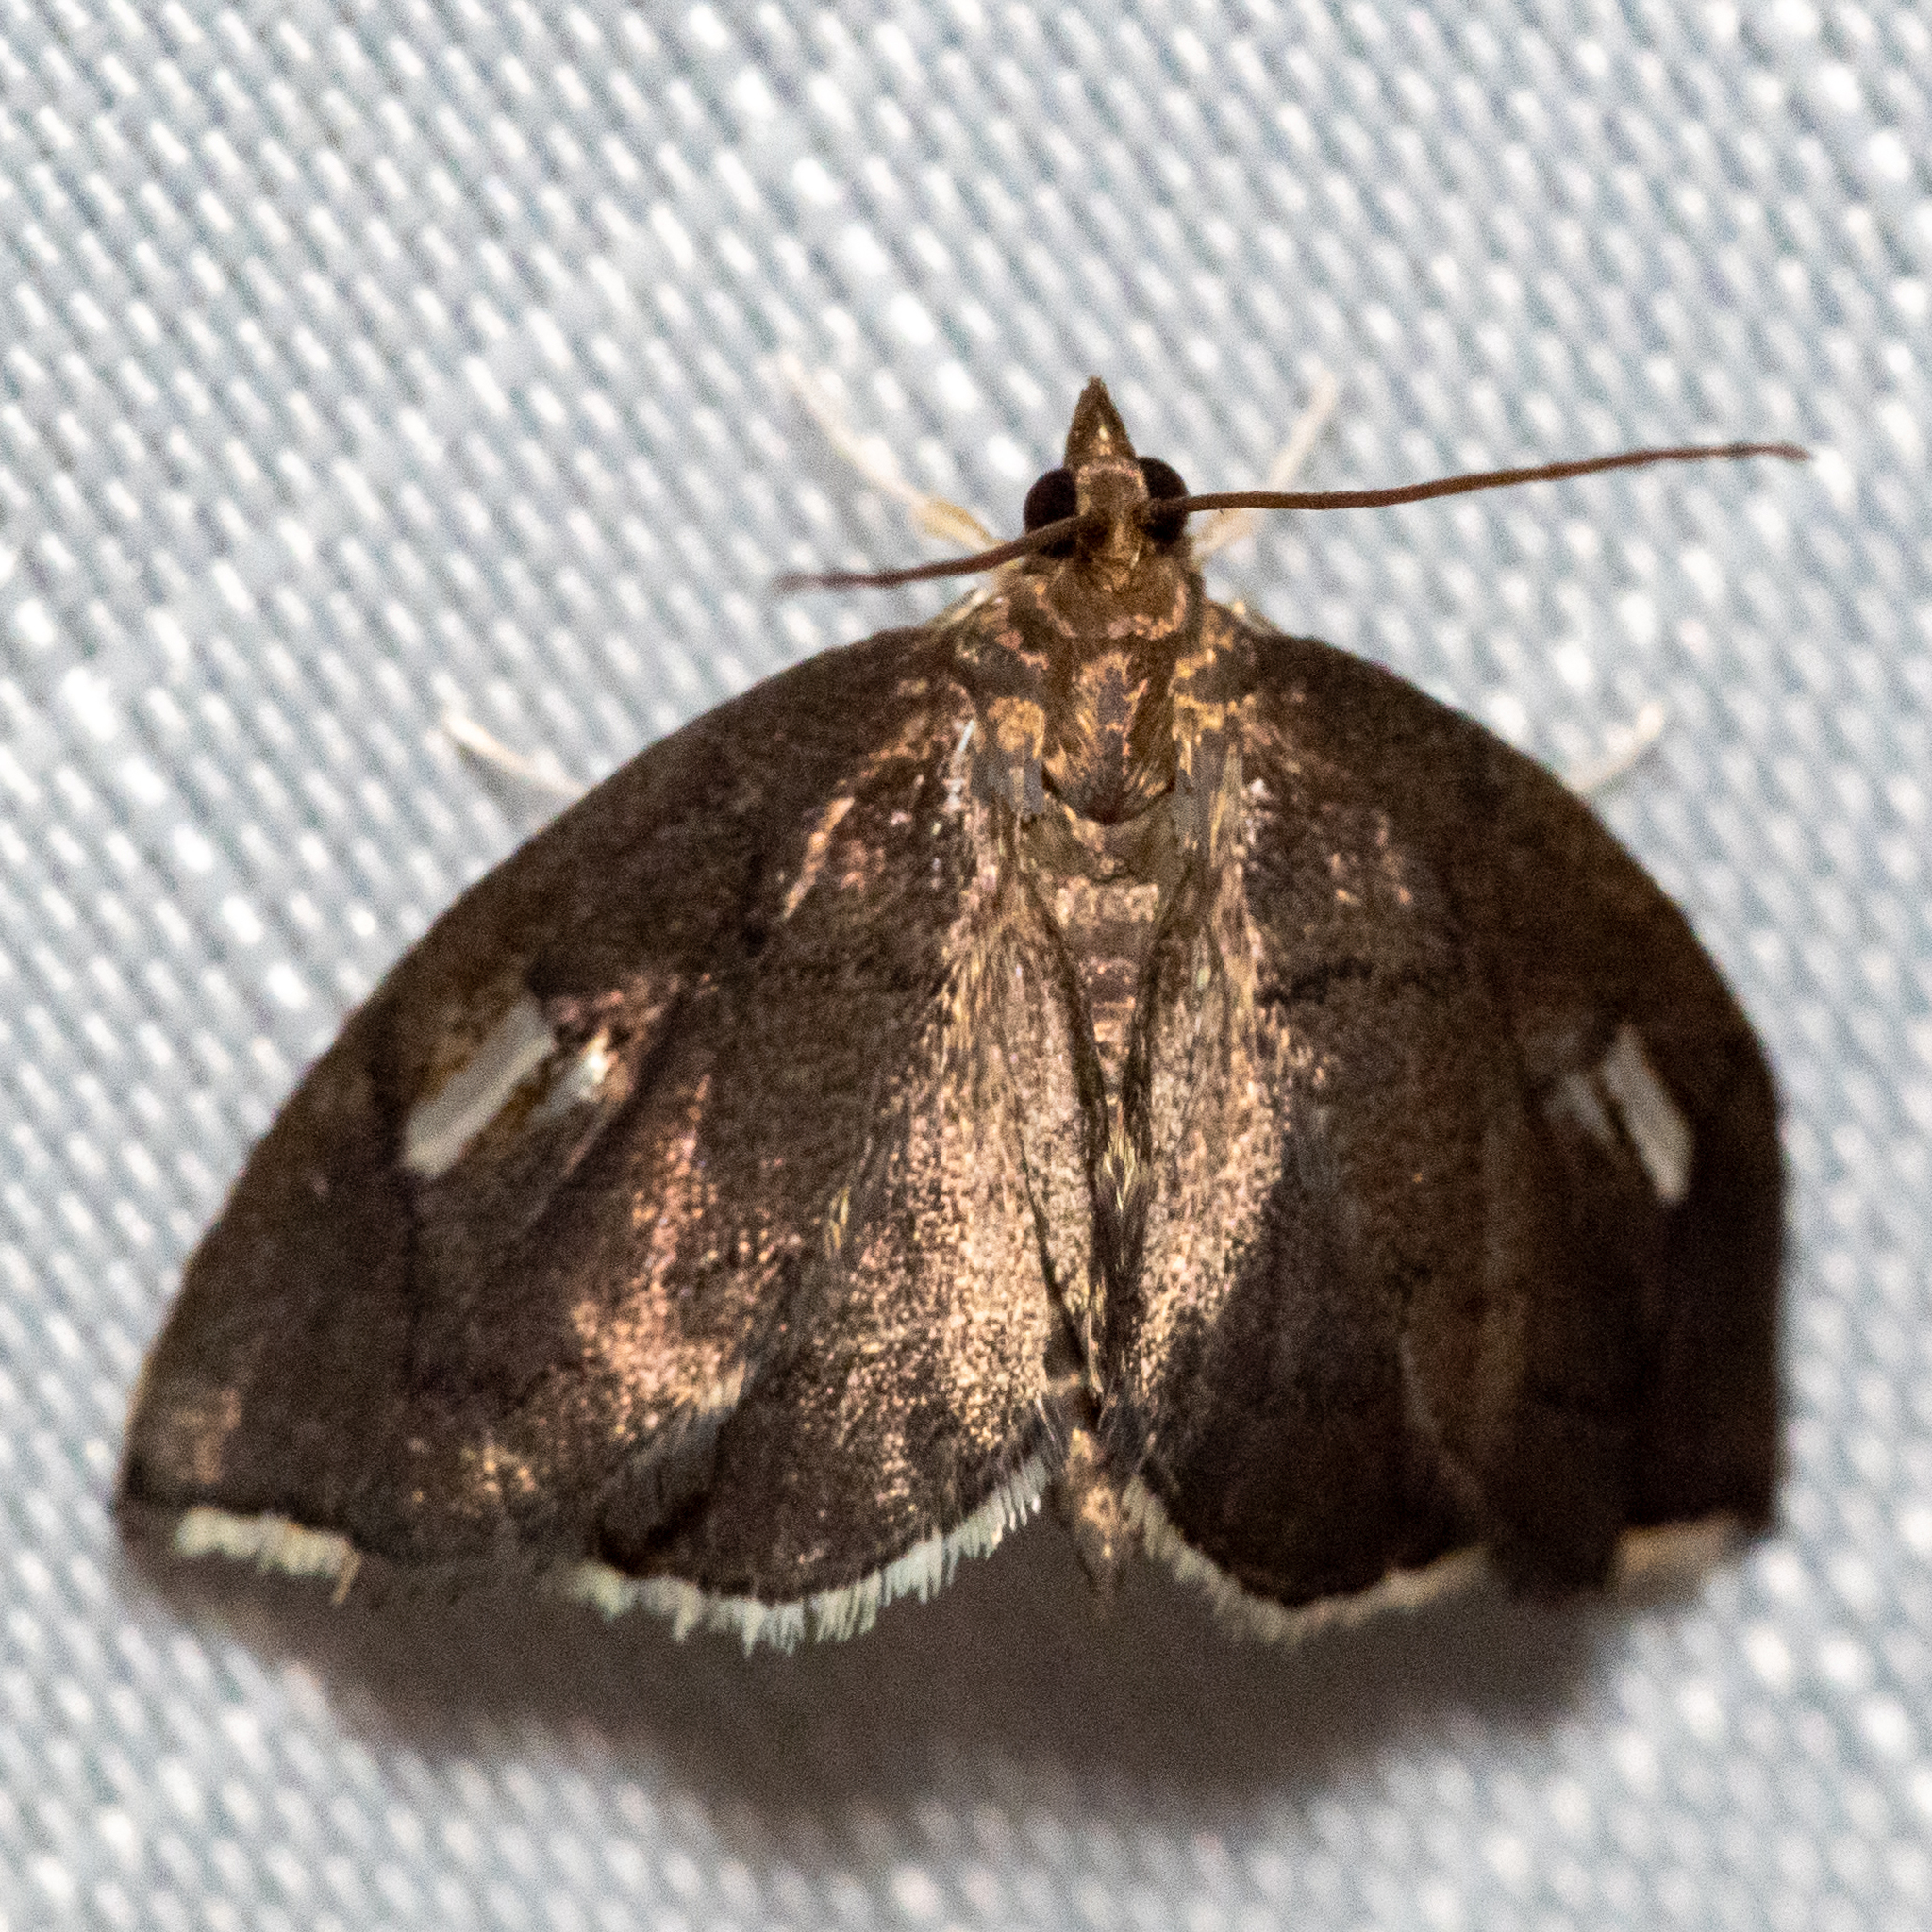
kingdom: Animalia
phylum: Arthropoda
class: Insecta
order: Lepidoptera
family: Crambidae
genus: Perispasta
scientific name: Perispasta caeculalis
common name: Titian peale's moth
